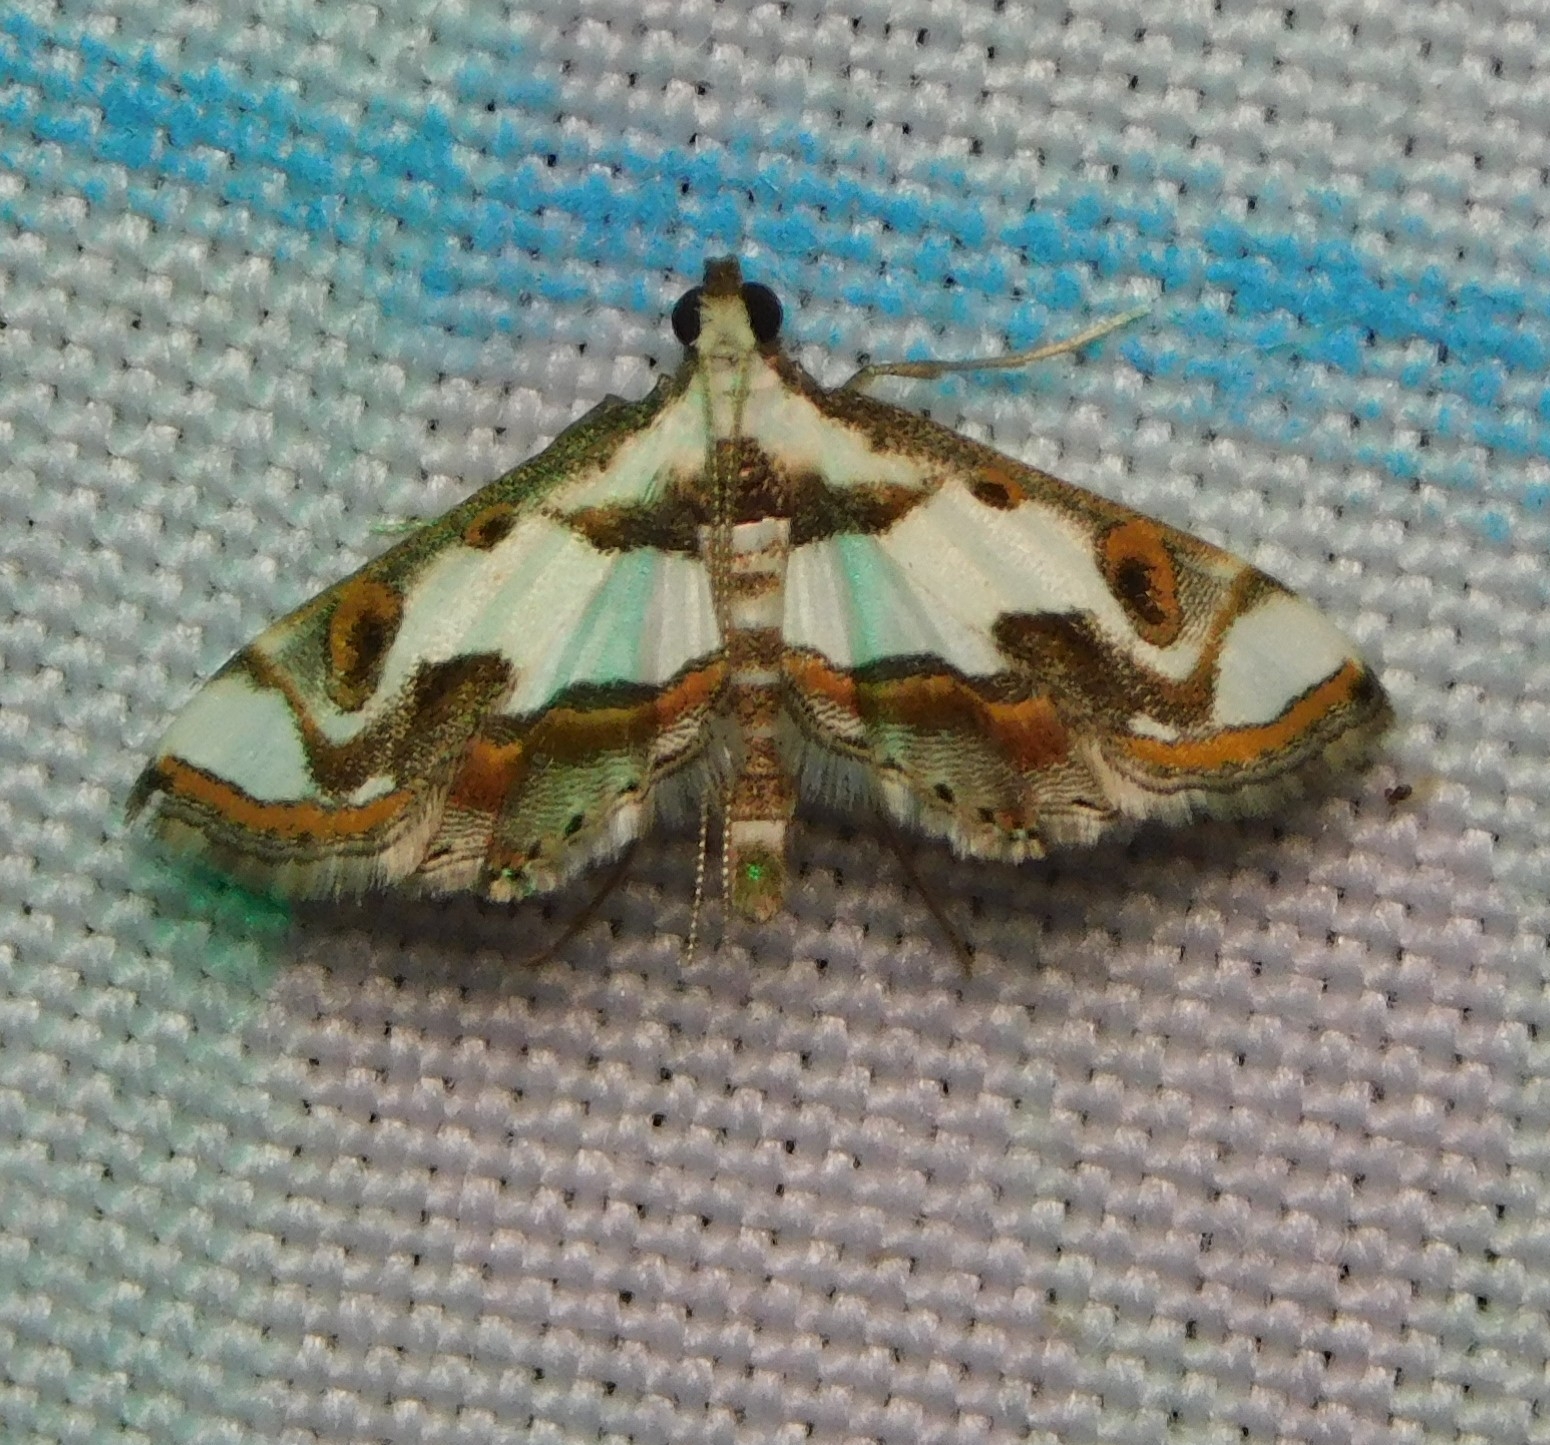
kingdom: Animalia
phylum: Arthropoda
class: Insecta
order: Lepidoptera
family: Crambidae
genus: Agassiziella
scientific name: Agassiziella picalis
